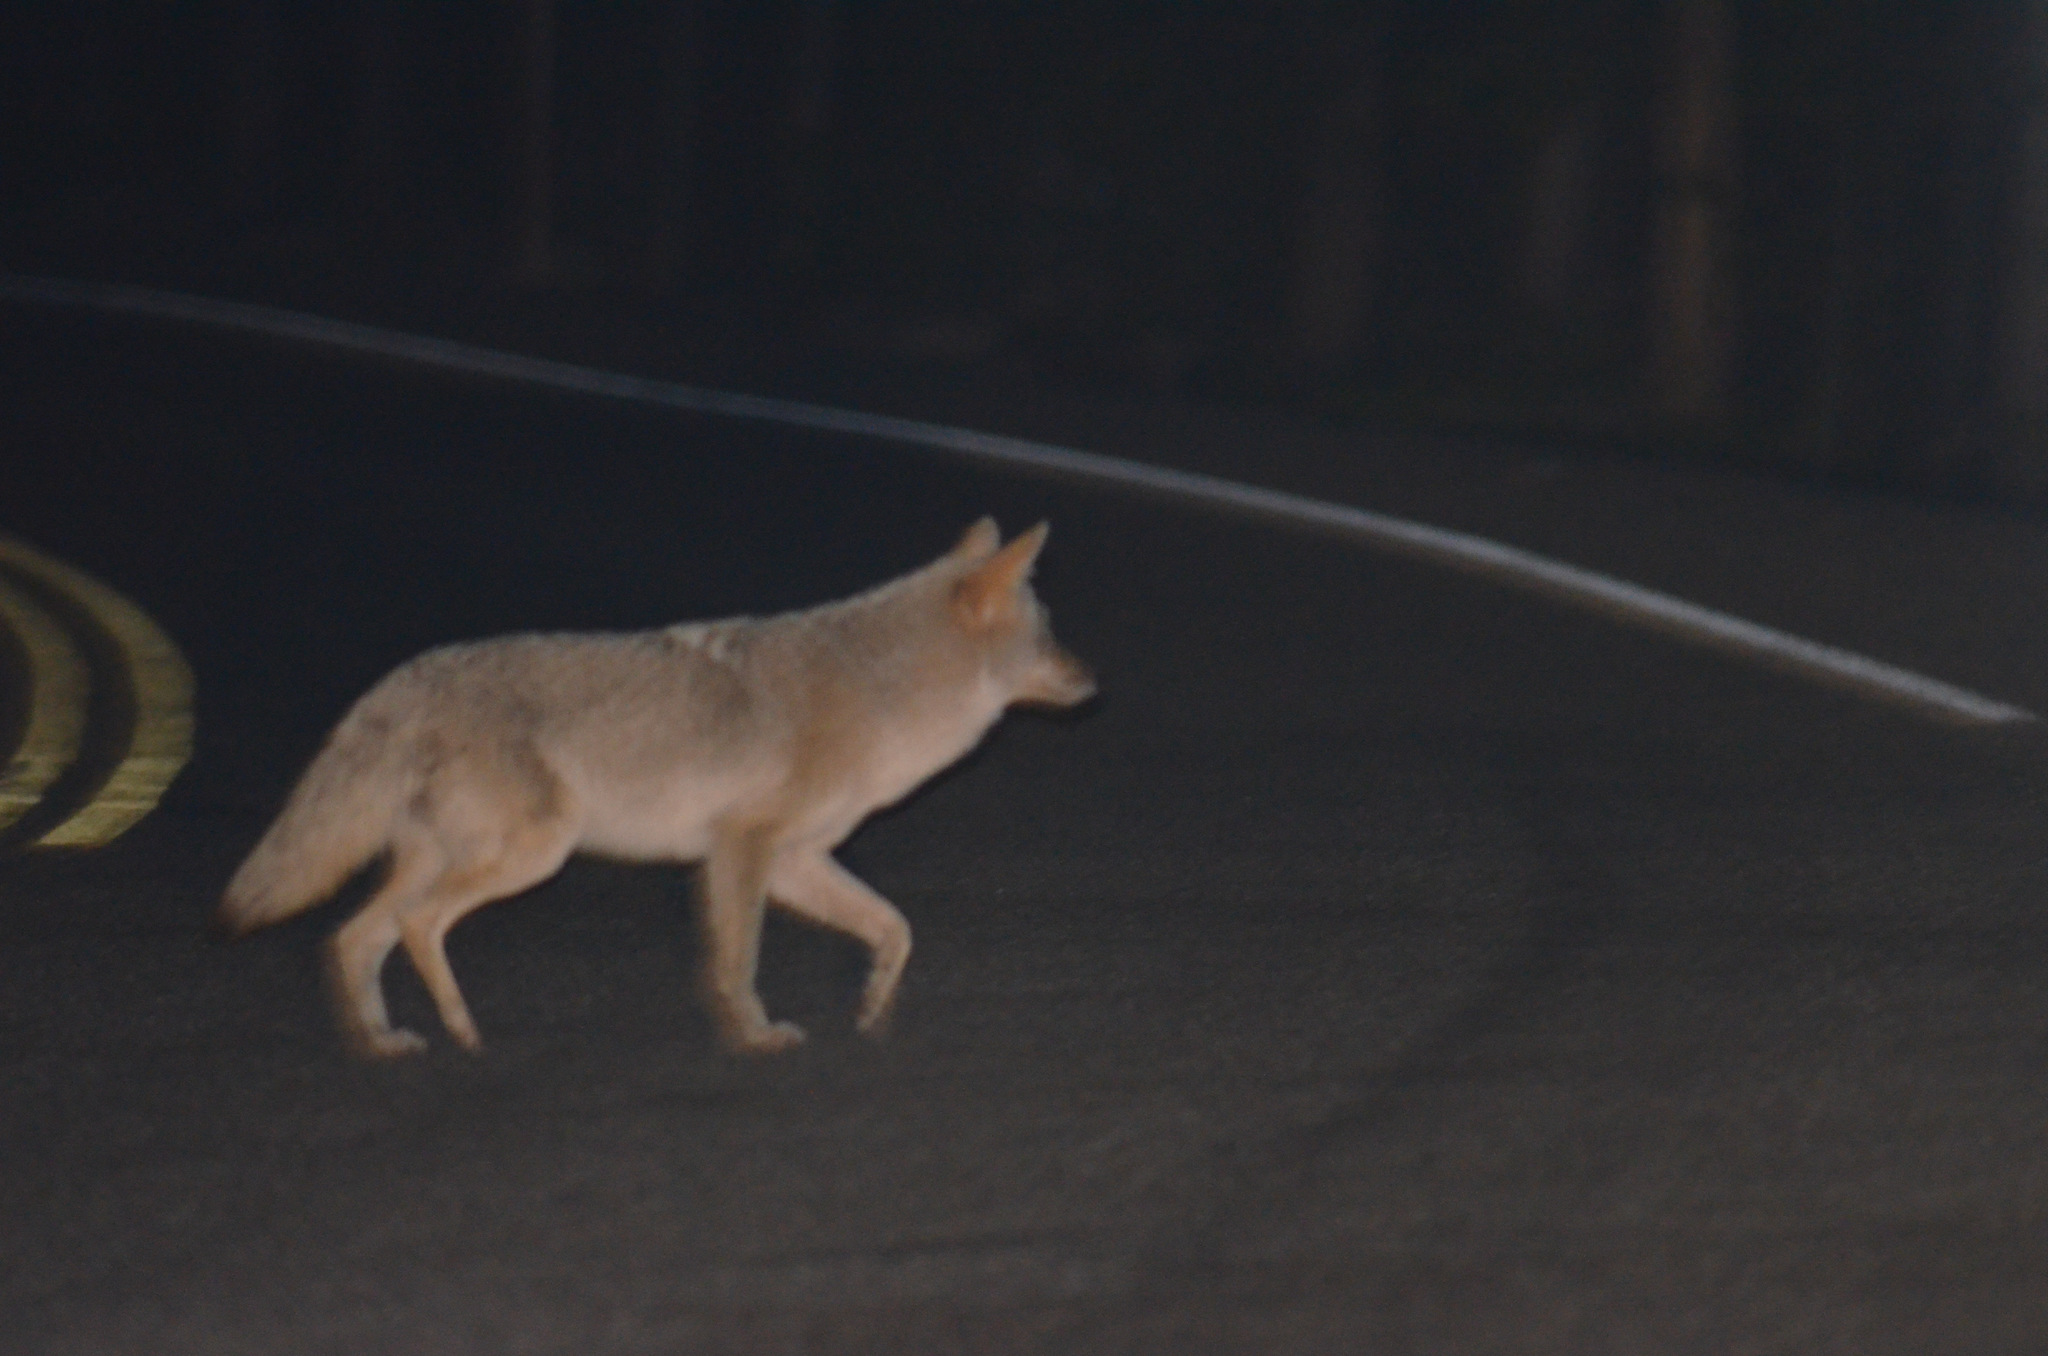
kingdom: Animalia
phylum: Chordata
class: Mammalia
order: Carnivora
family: Canidae
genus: Canis
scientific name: Canis latrans
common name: Coyote
